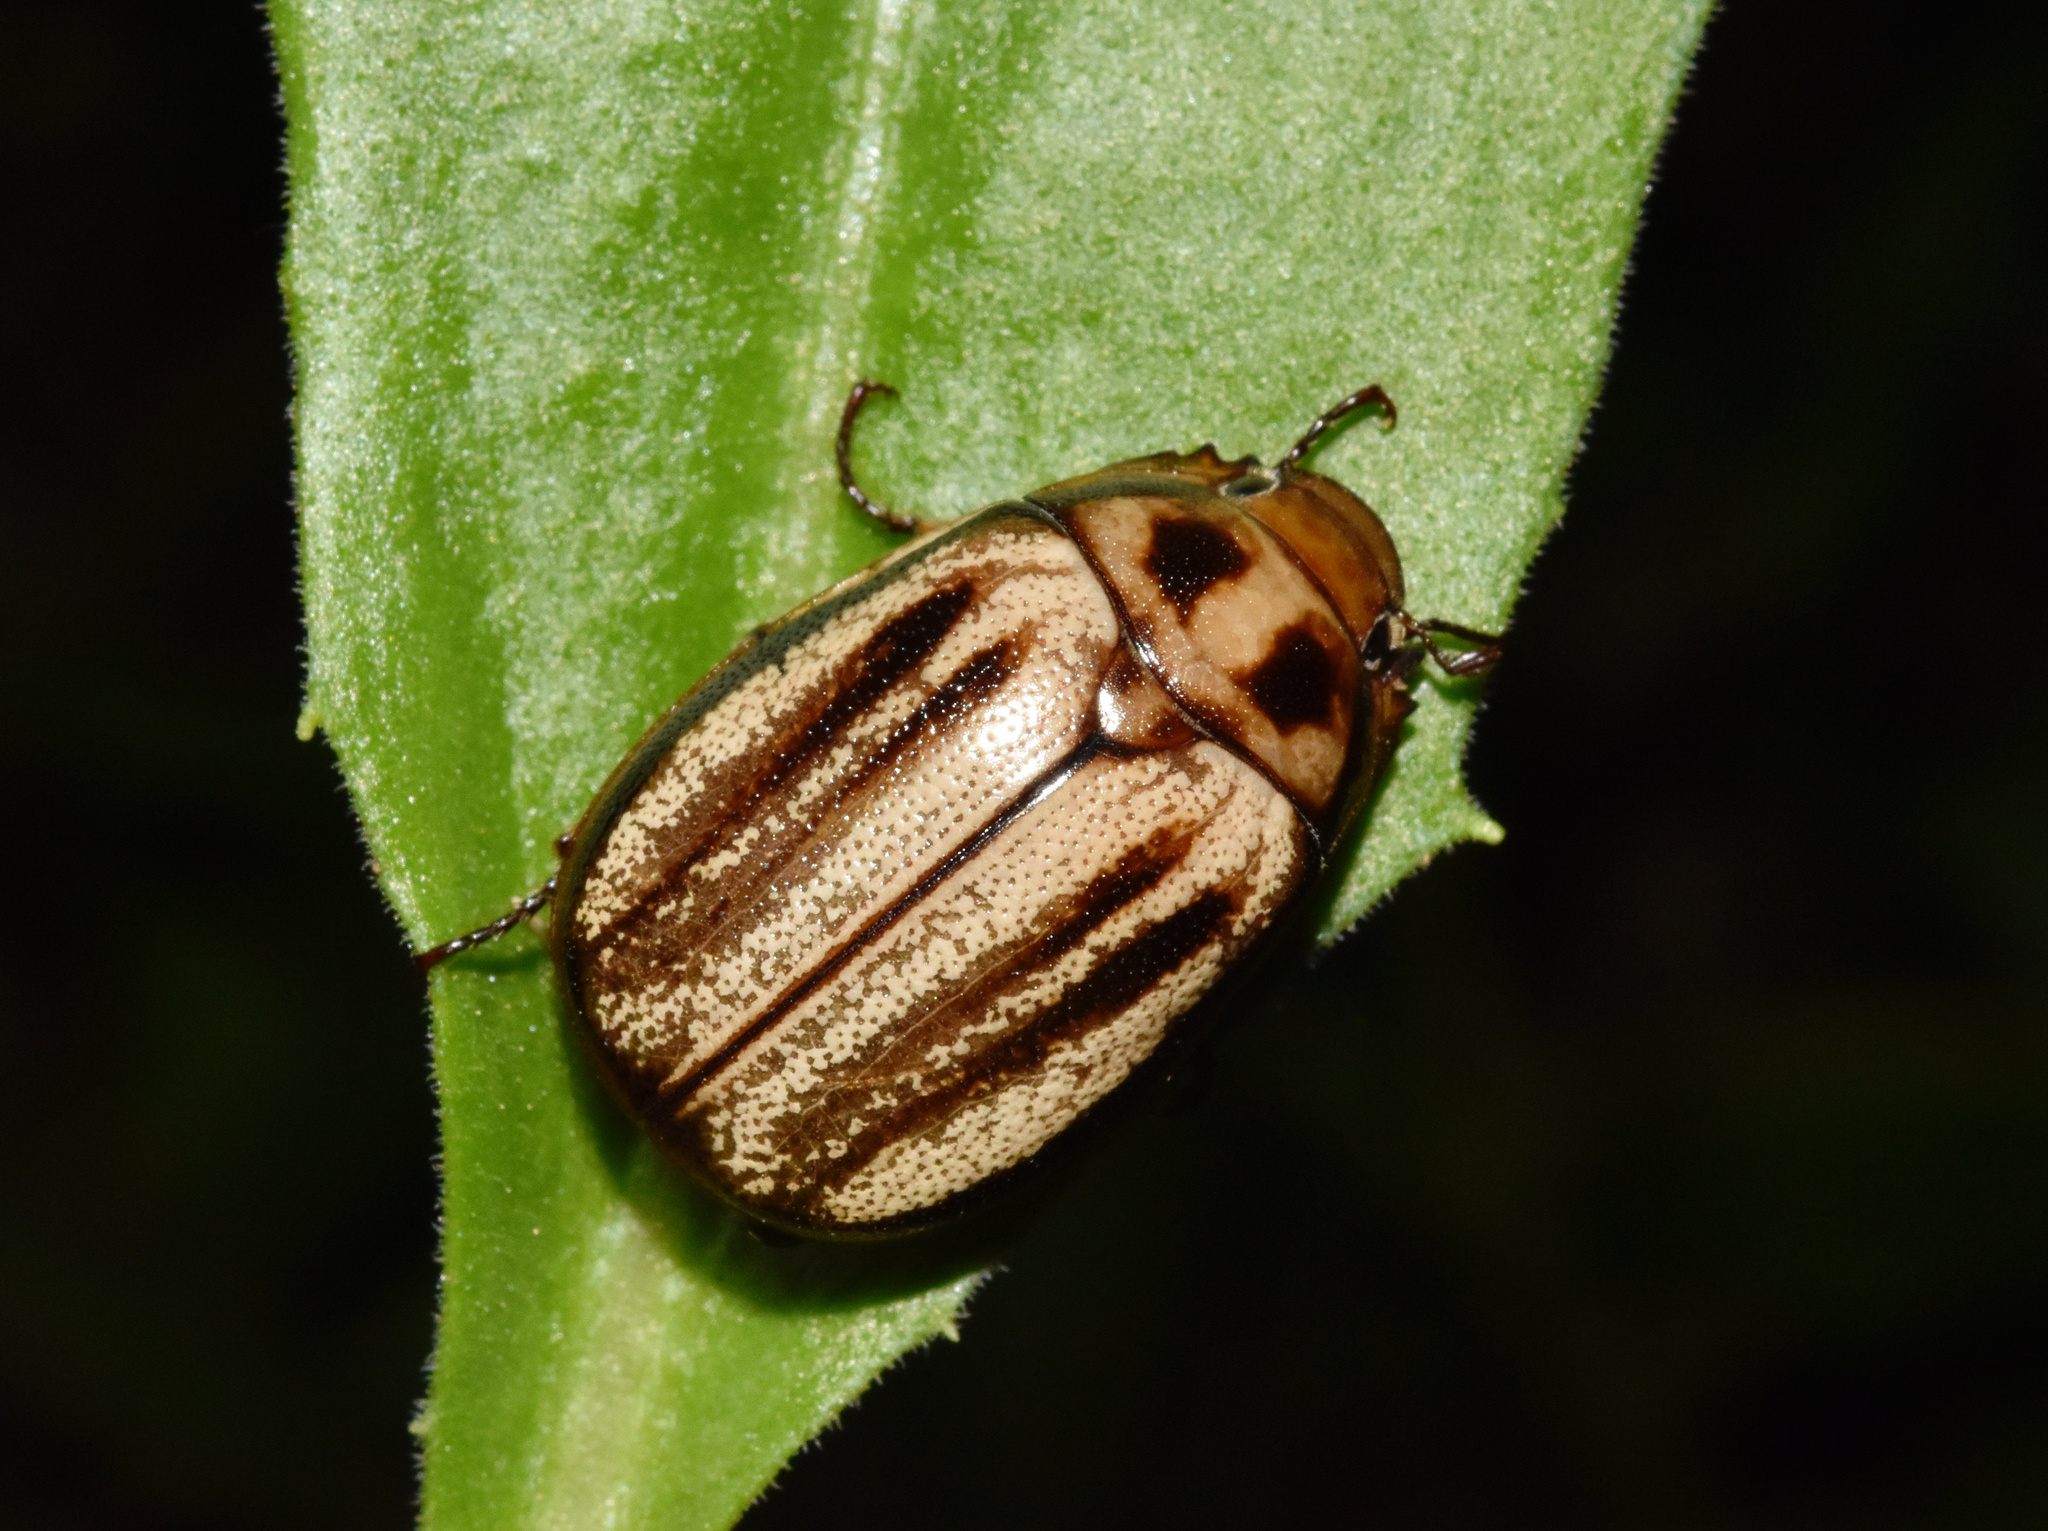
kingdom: Animalia
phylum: Arthropoda
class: Insecta
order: Coleoptera
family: Scarabaeidae
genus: Pegylis
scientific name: Pegylis vittata
